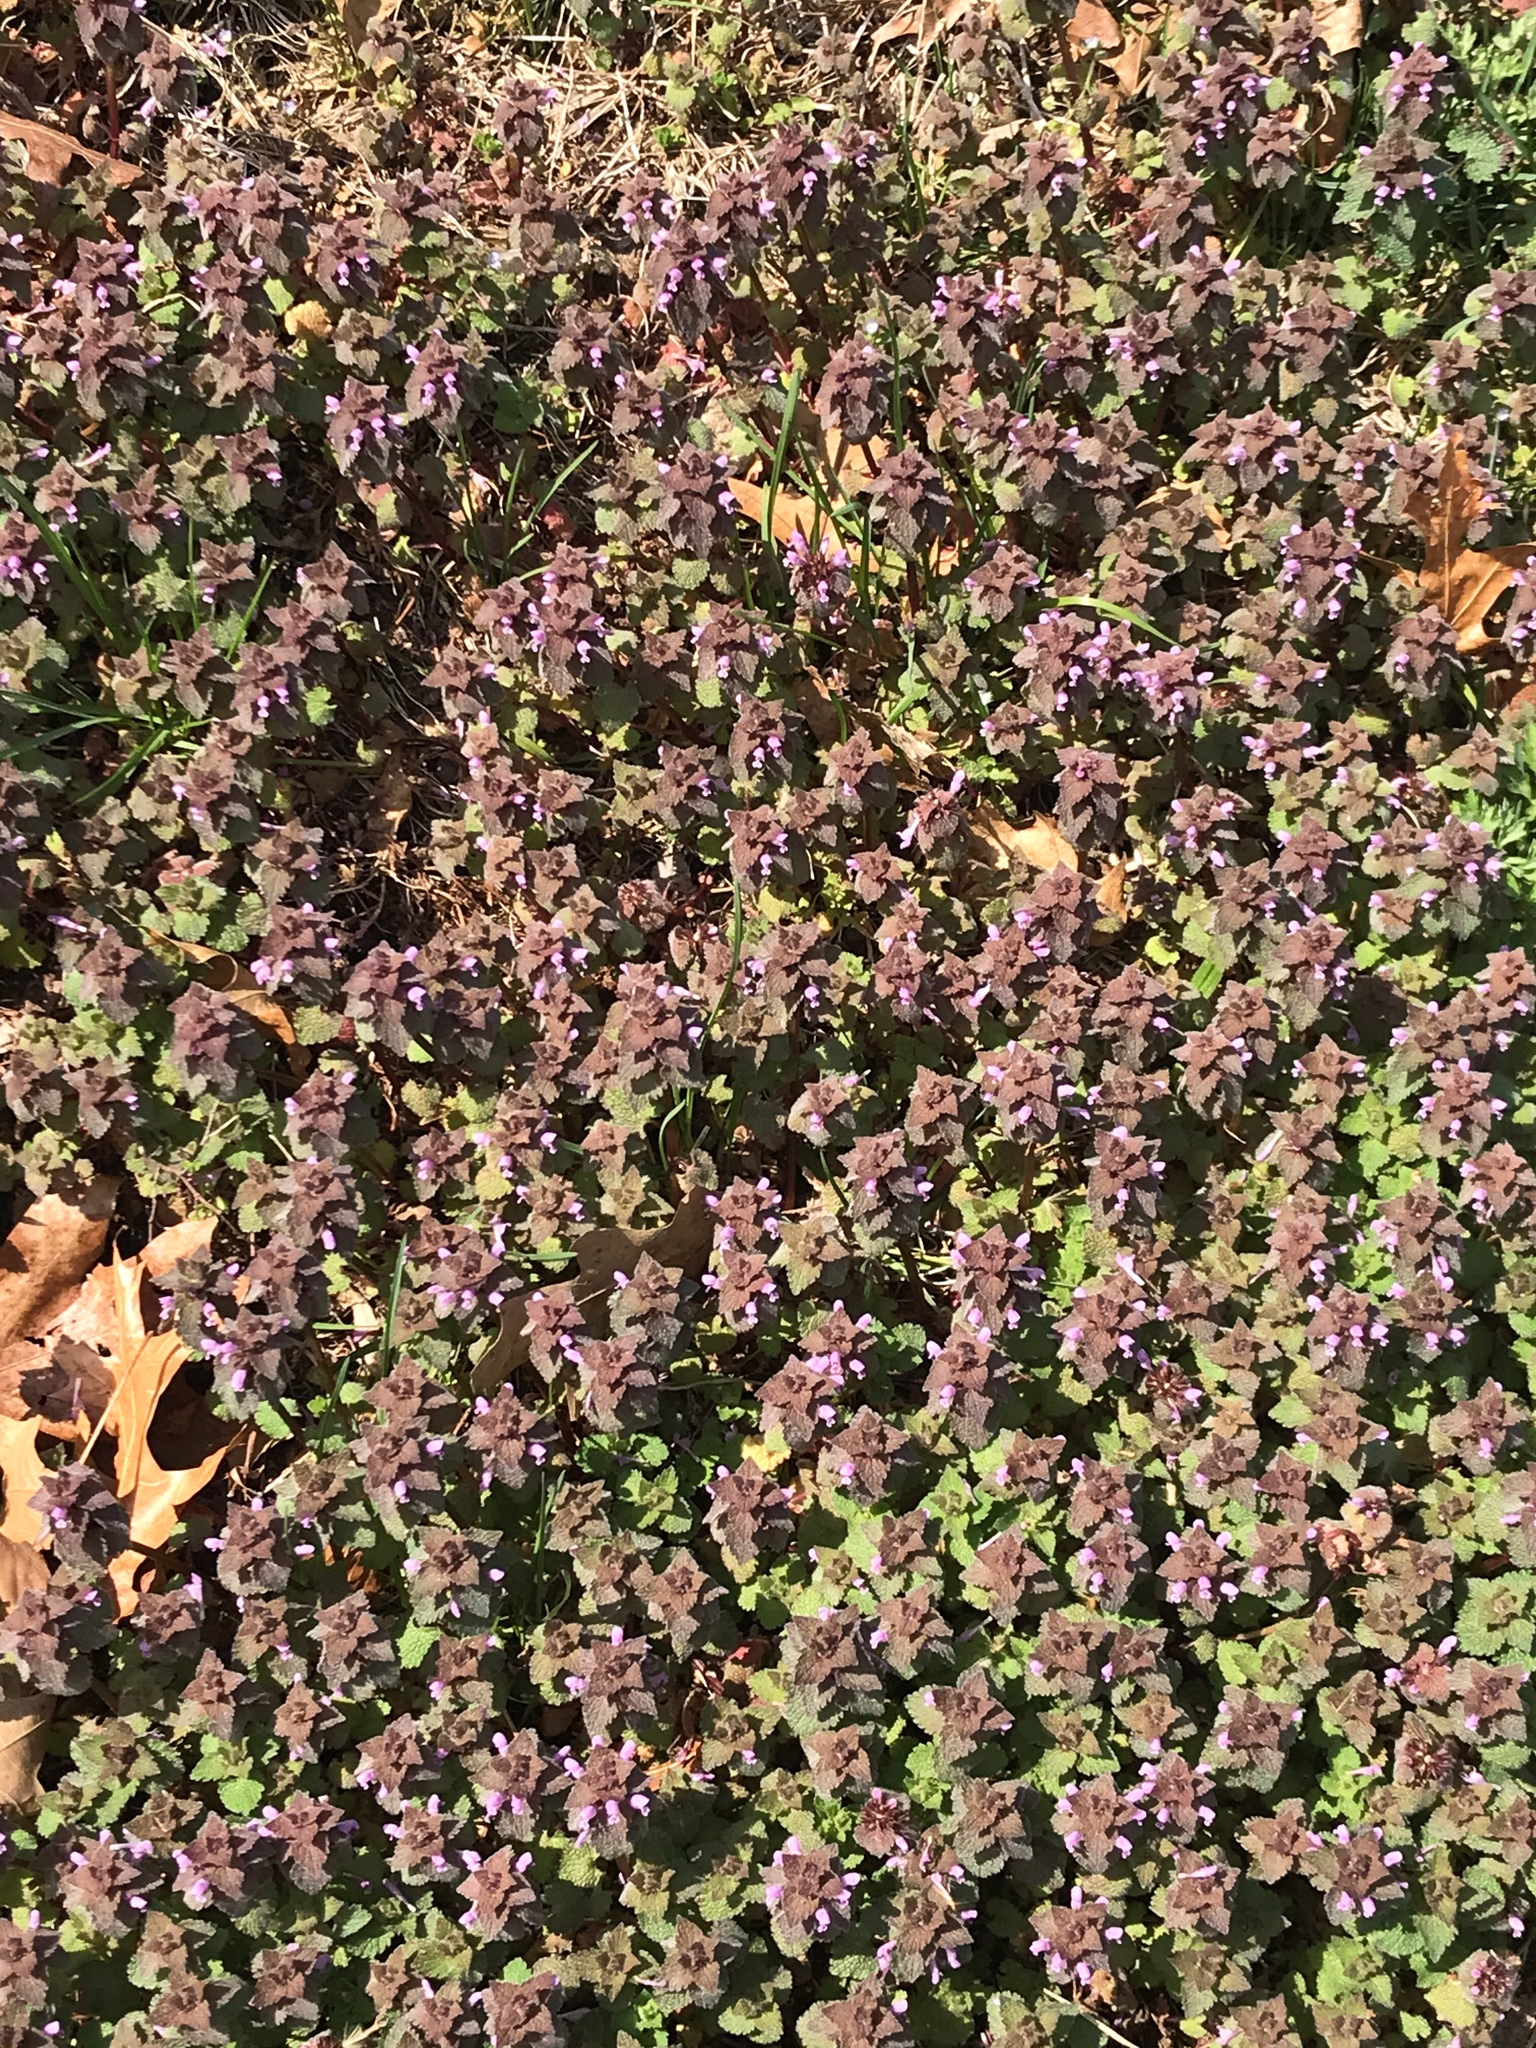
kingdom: Plantae
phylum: Tracheophyta
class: Magnoliopsida
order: Lamiales
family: Lamiaceae
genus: Lamium
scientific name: Lamium purpureum
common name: Red dead-nettle
